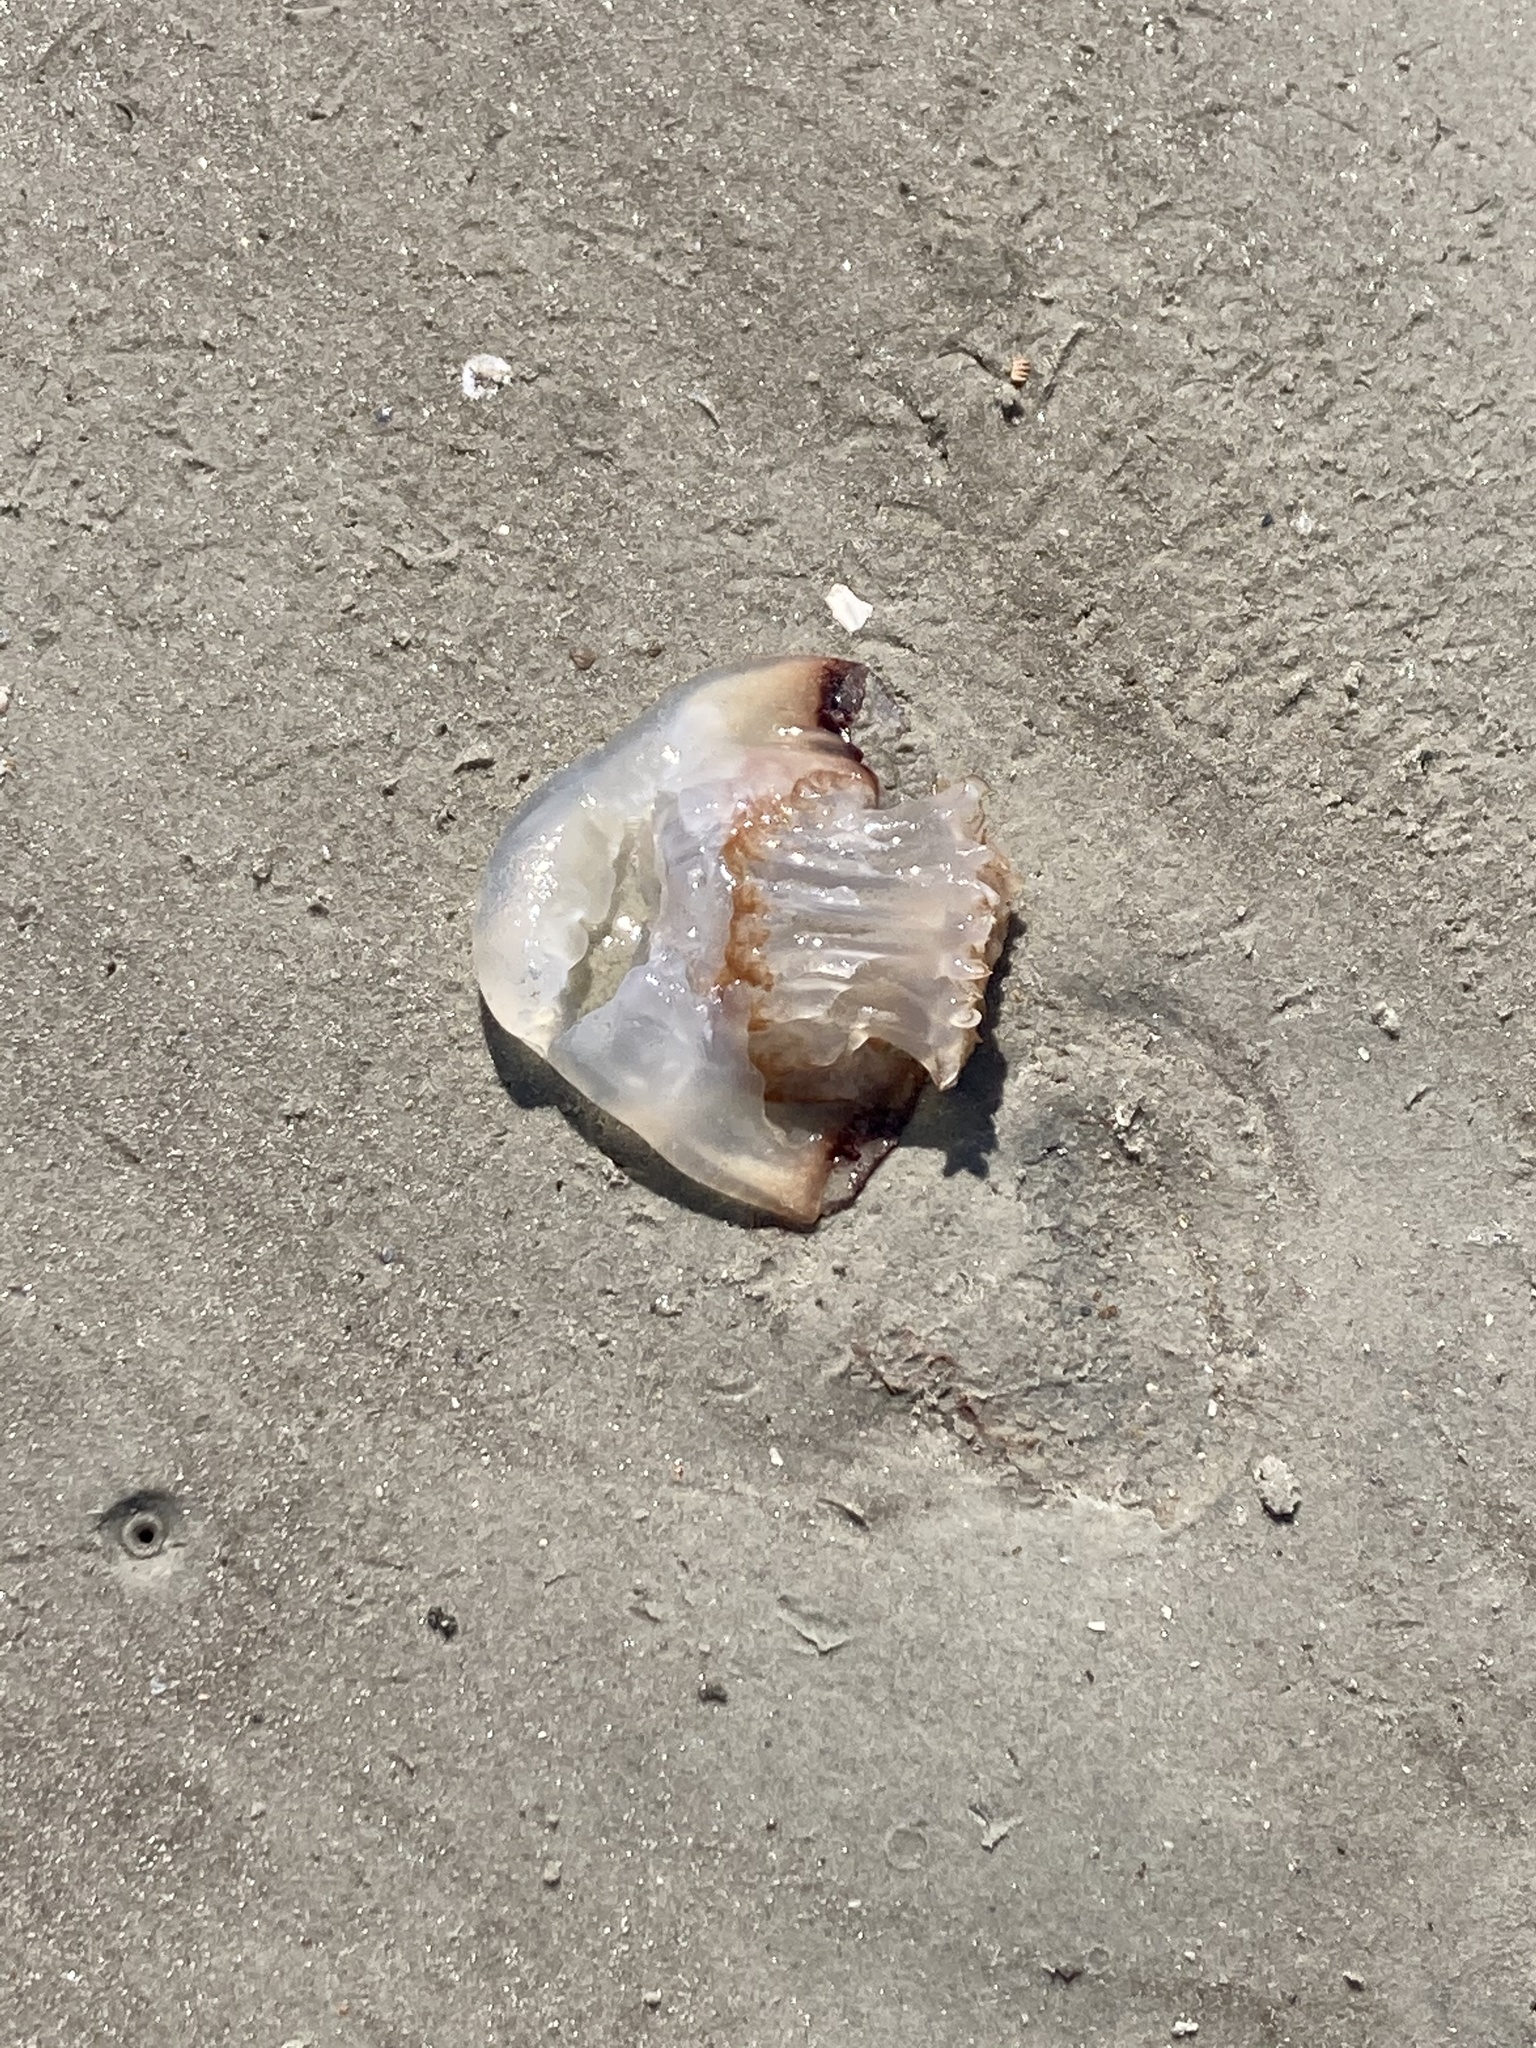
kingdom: Animalia
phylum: Cnidaria
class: Scyphozoa
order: Rhizostomeae
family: Stomolophidae
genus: Stomolophus
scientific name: Stomolophus meleagris
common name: Cabbagehead
